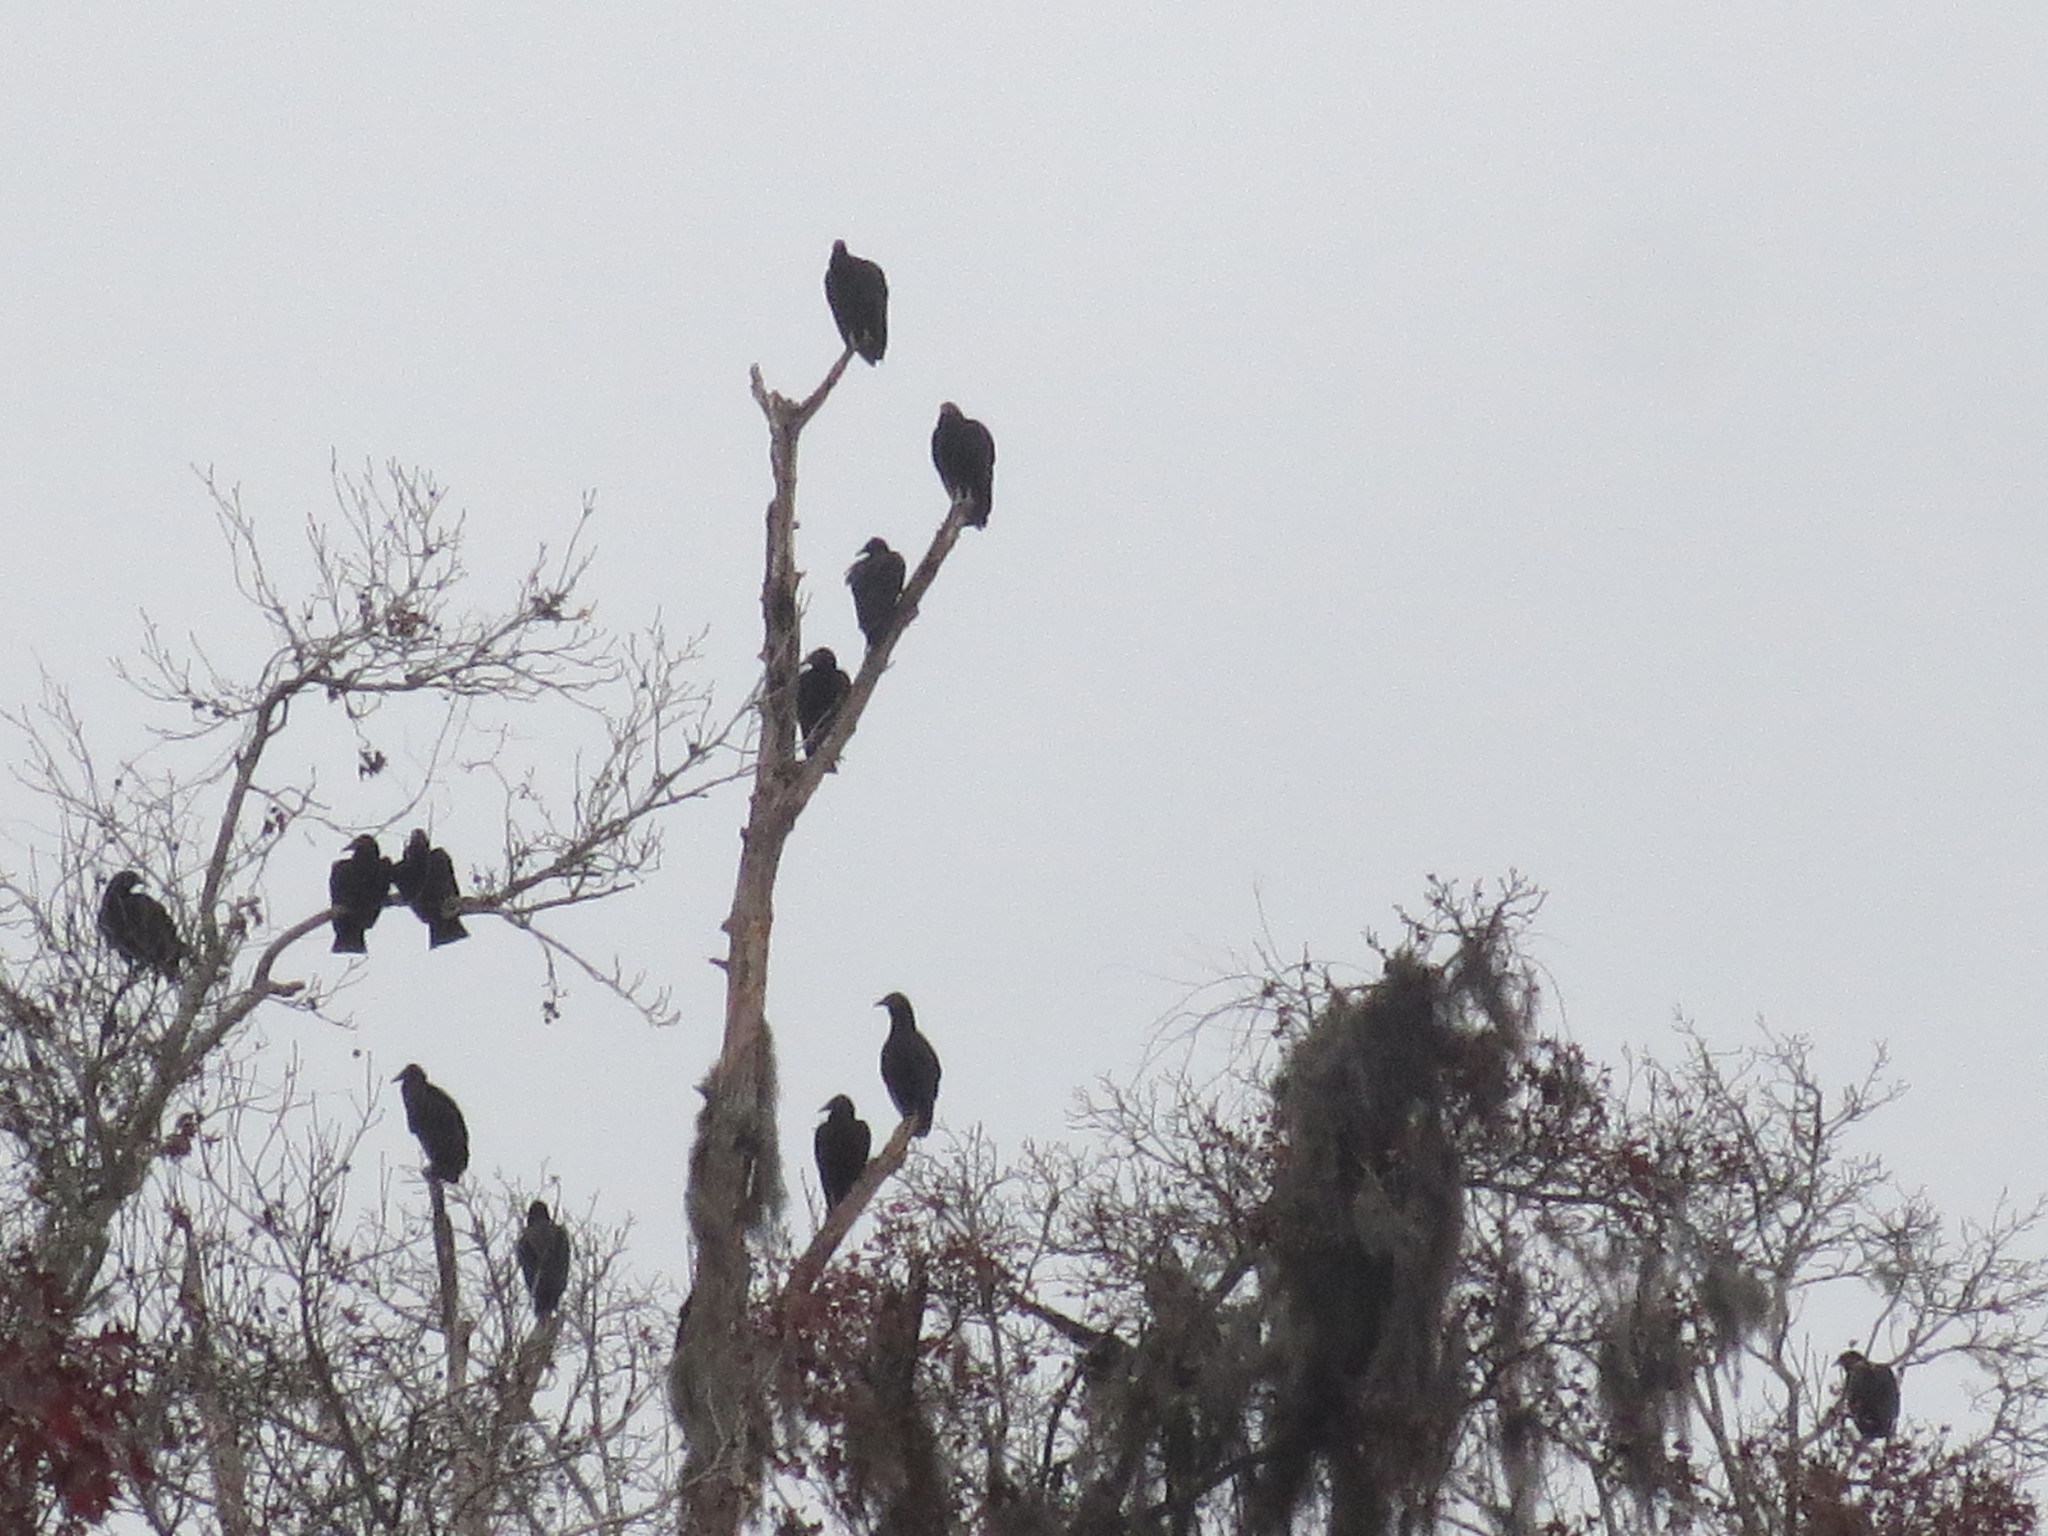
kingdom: Animalia
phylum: Chordata
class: Aves
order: Accipitriformes
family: Cathartidae
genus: Coragyps
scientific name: Coragyps atratus
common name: Black vulture
